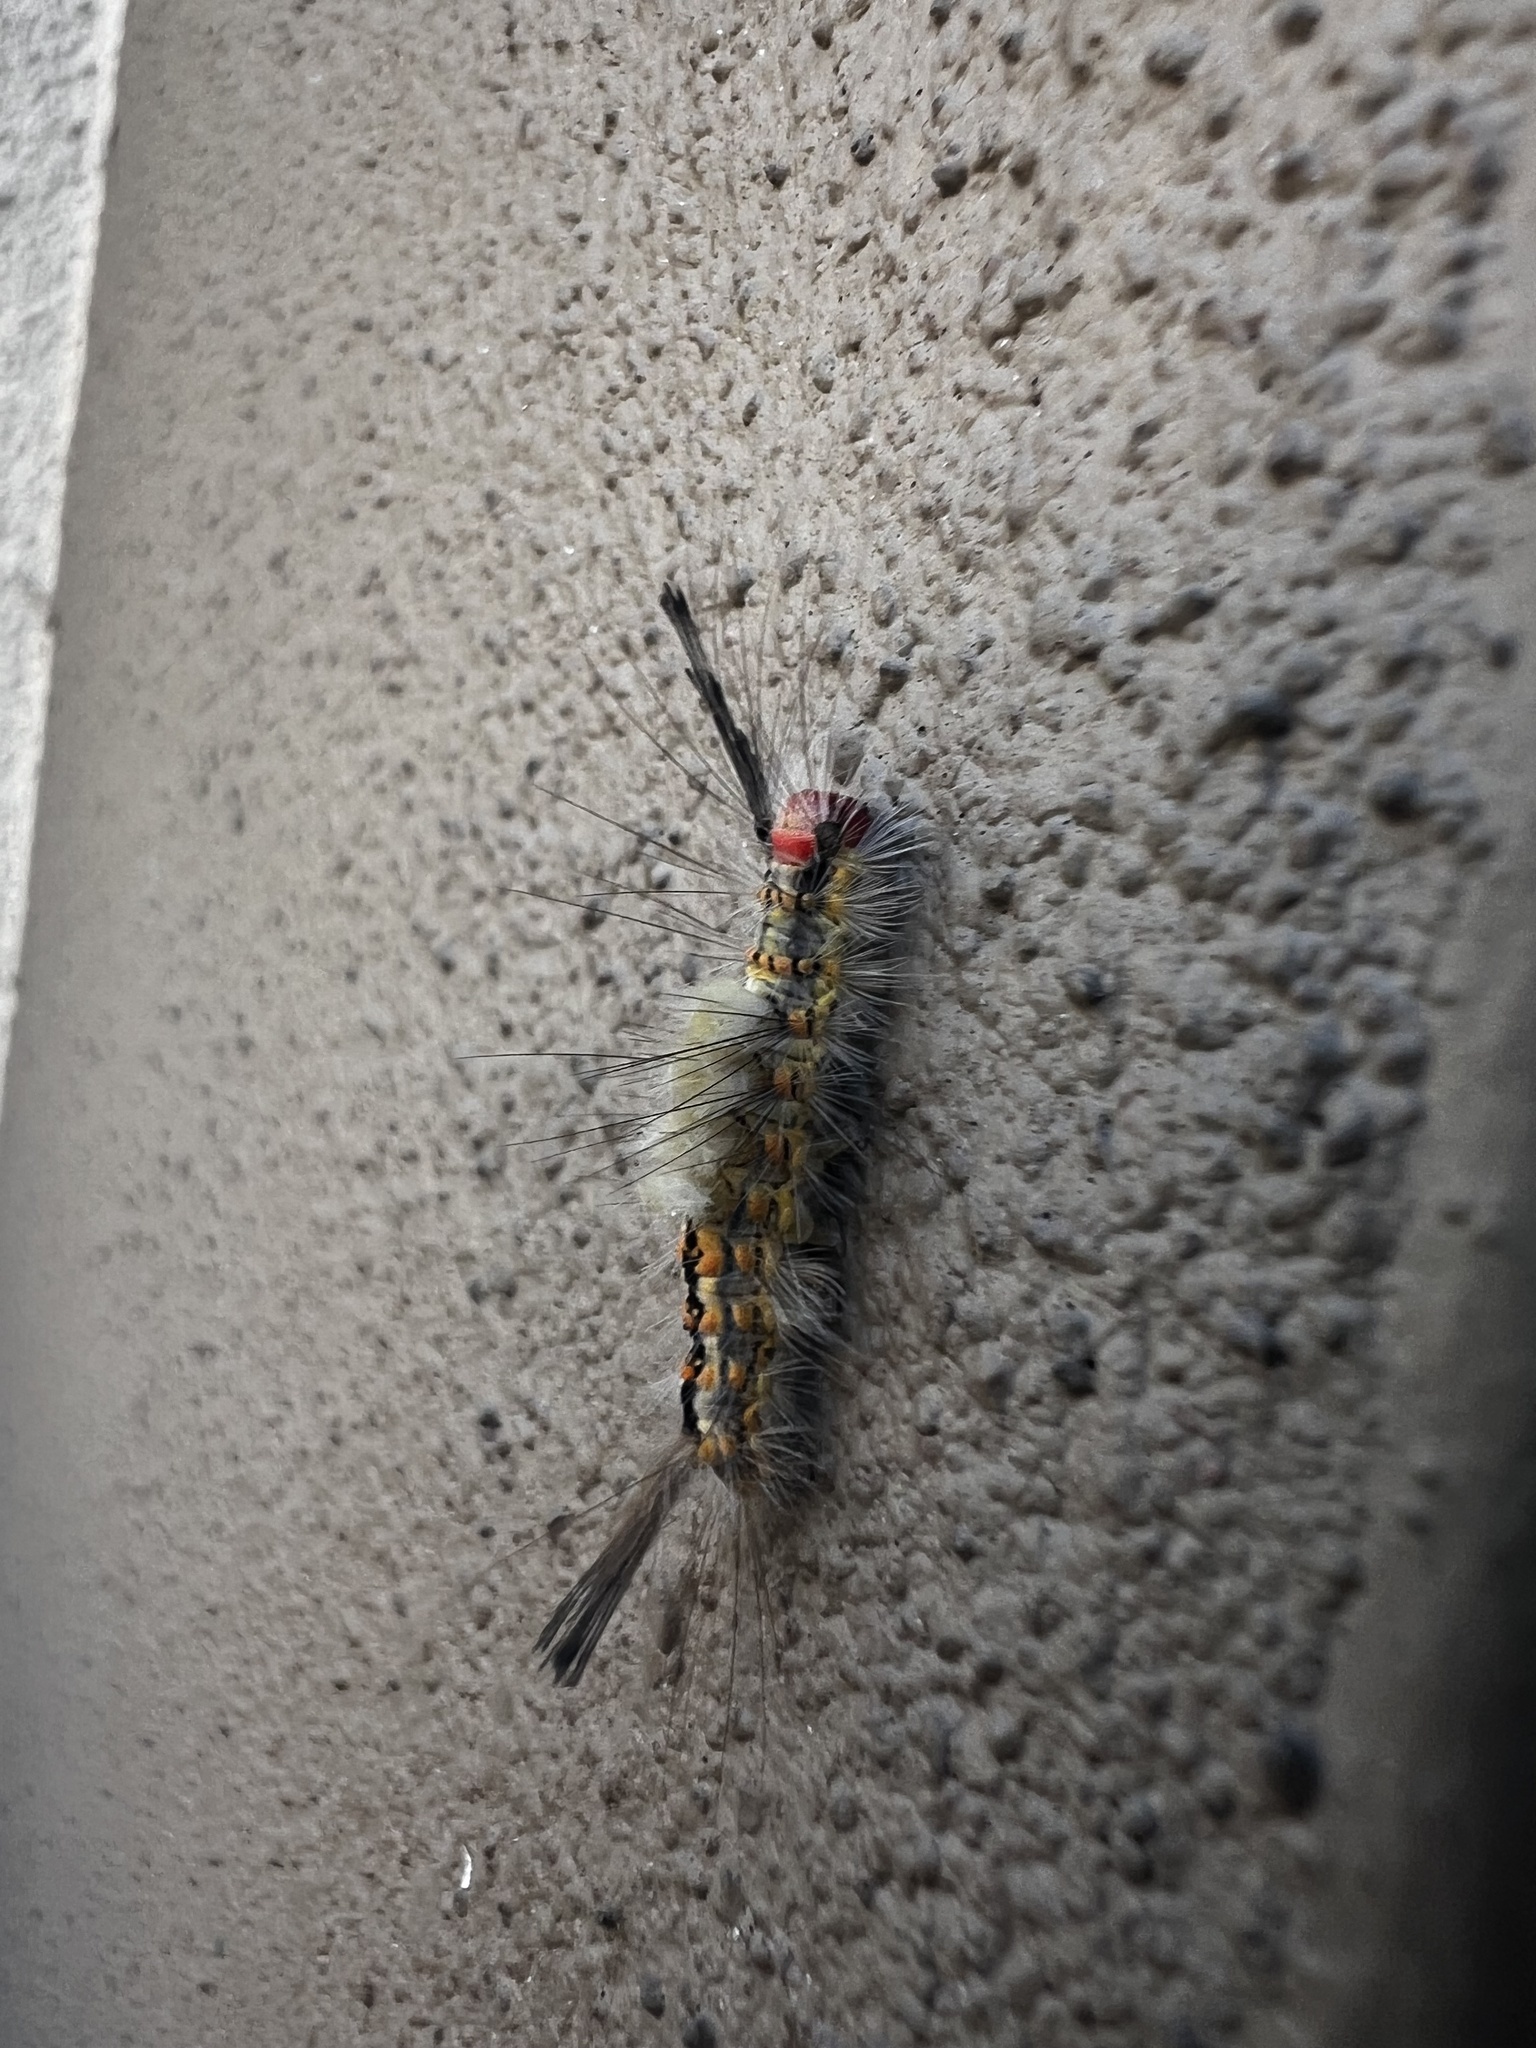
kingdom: Animalia
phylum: Arthropoda
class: Insecta
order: Lepidoptera
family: Erebidae
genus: Orgyia
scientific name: Orgyia detrita
